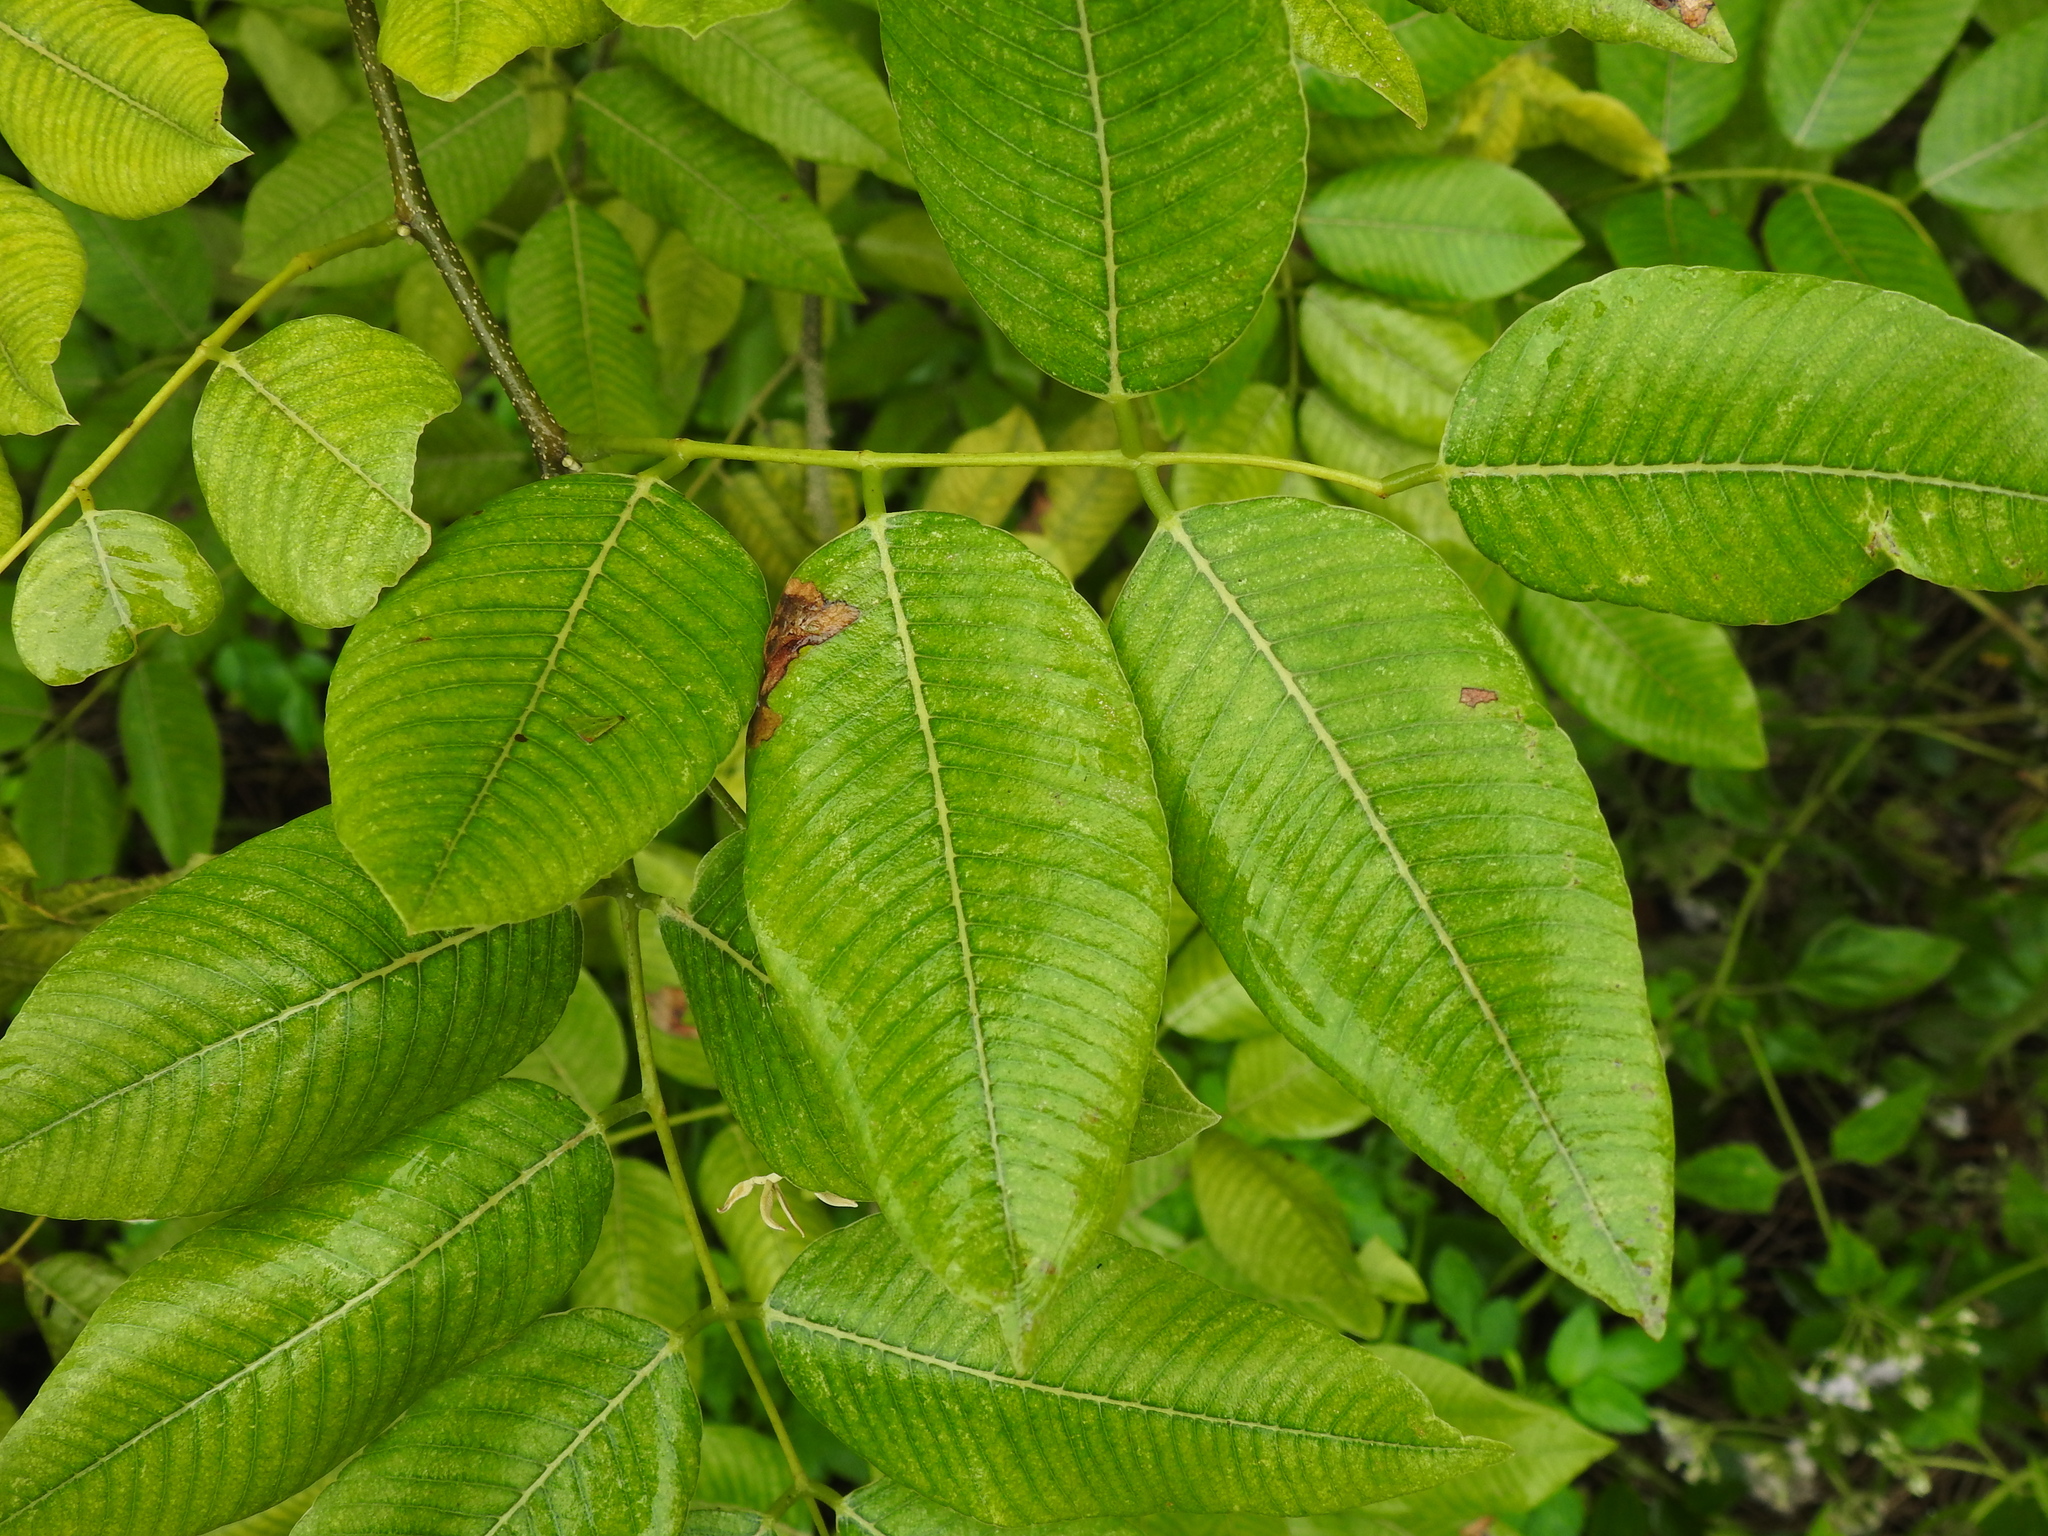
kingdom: Plantae
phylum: Tracheophyta
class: Magnoliopsida
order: Fabales
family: Fabaceae
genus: Piscidia
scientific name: Piscidia piscipula
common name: Florida fishpoison tree
